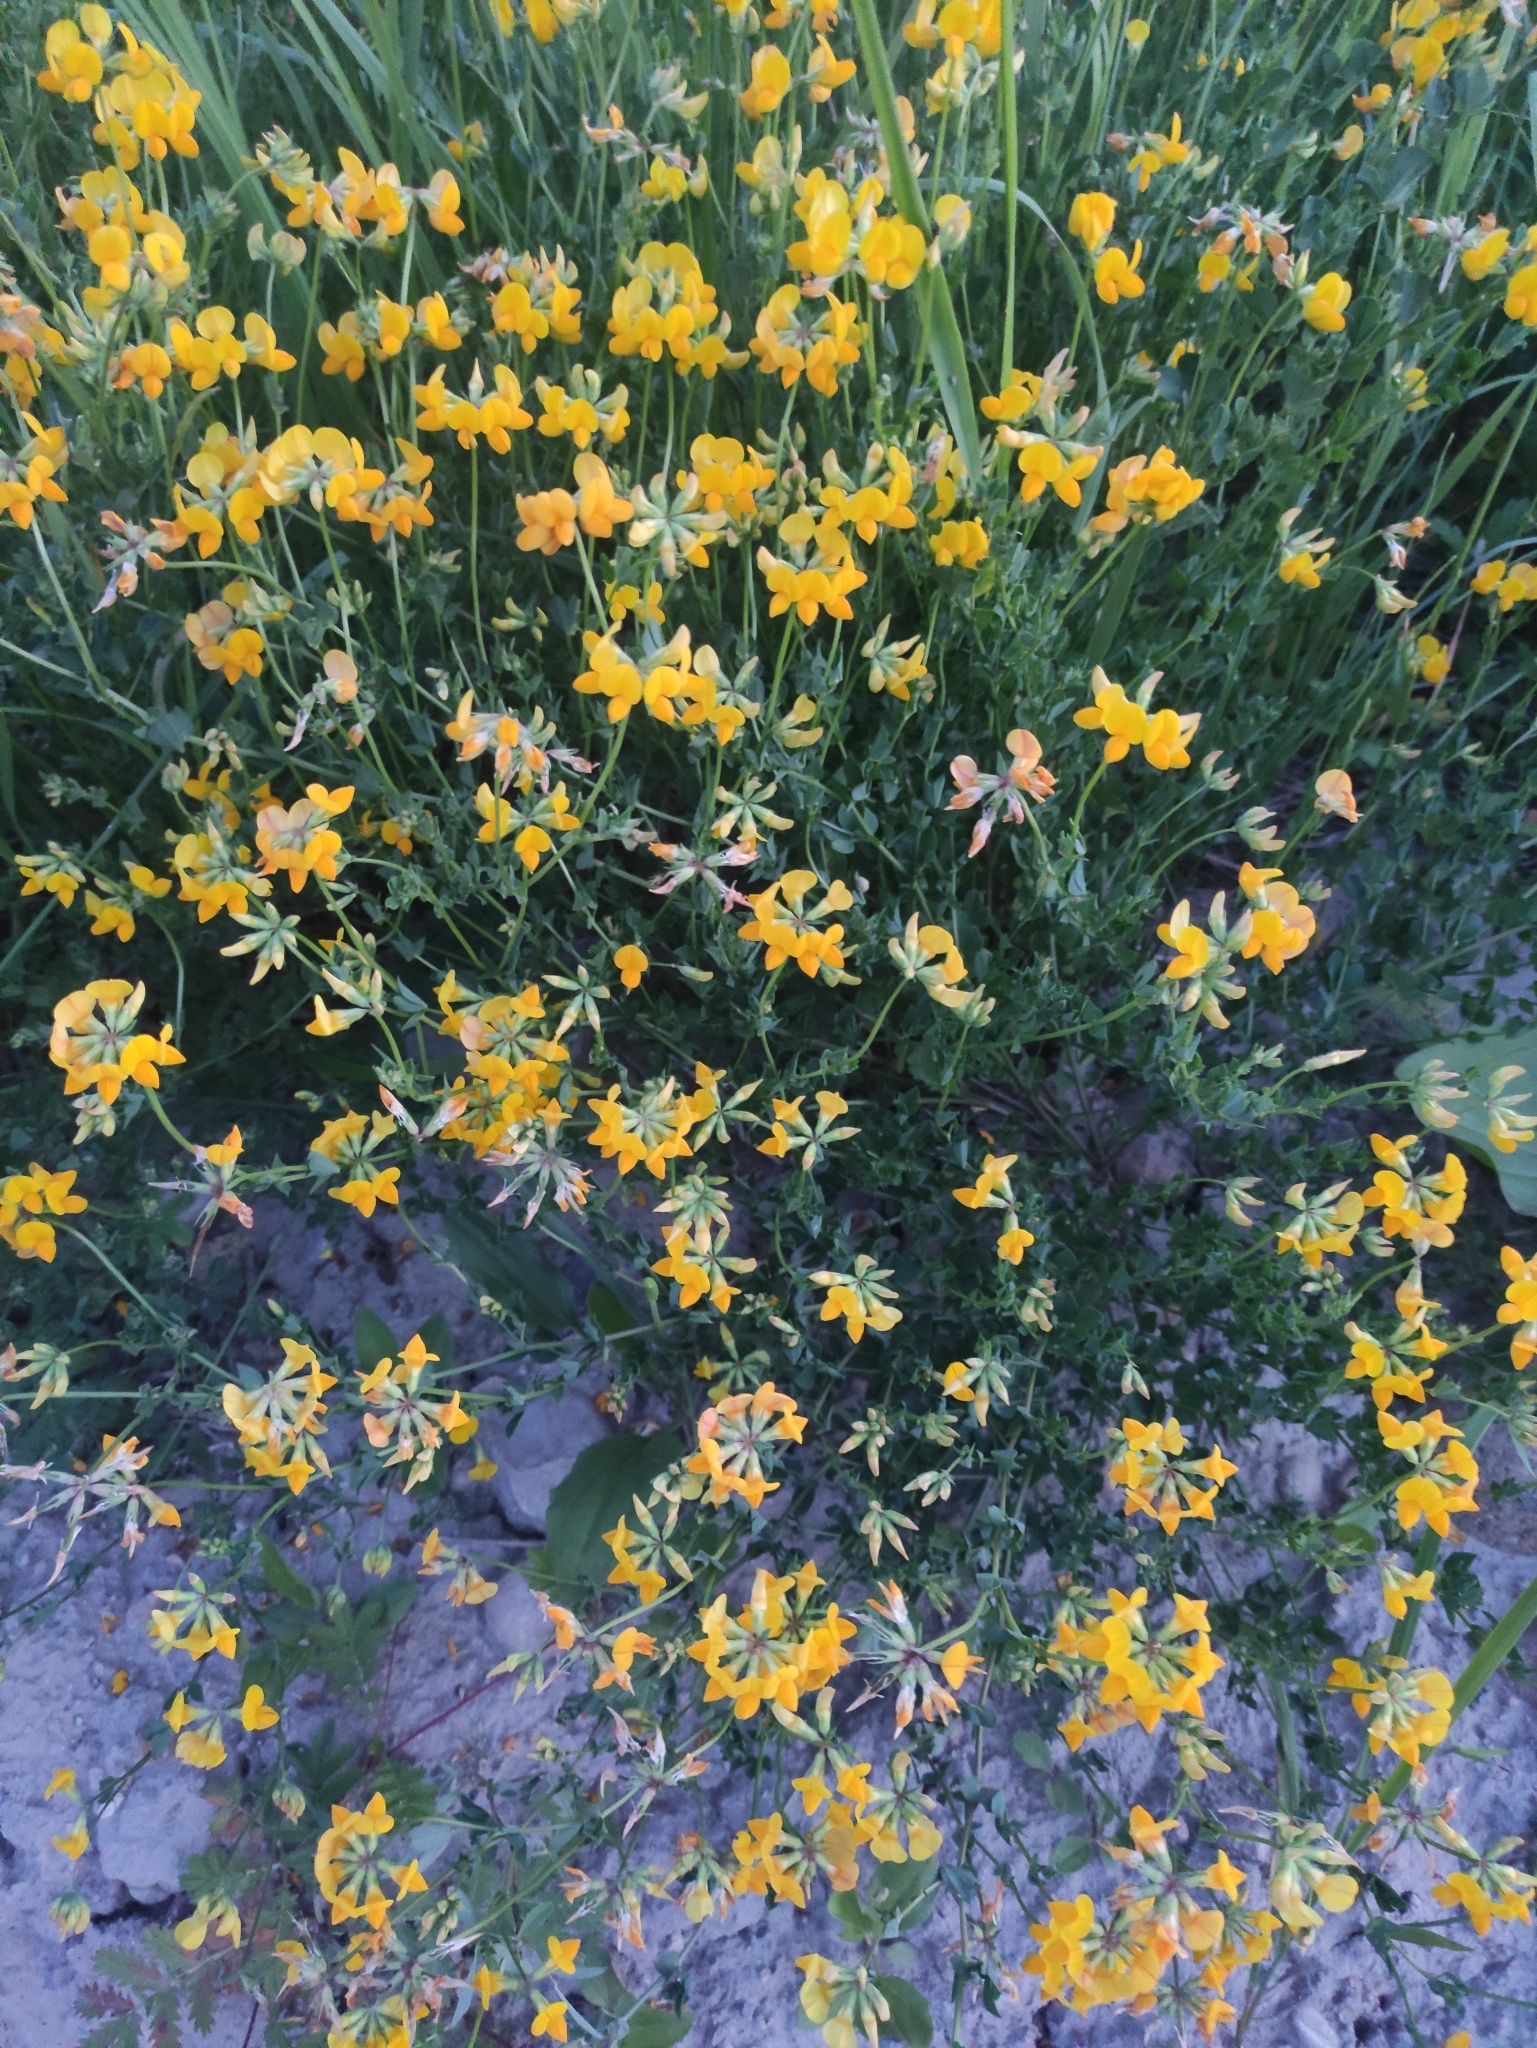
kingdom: Plantae
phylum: Tracheophyta
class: Magnoliopsida
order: Fabales
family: Fabaceae
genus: Lotus
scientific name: Lotus corniculatus
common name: Common bird's-foot-trefoil
